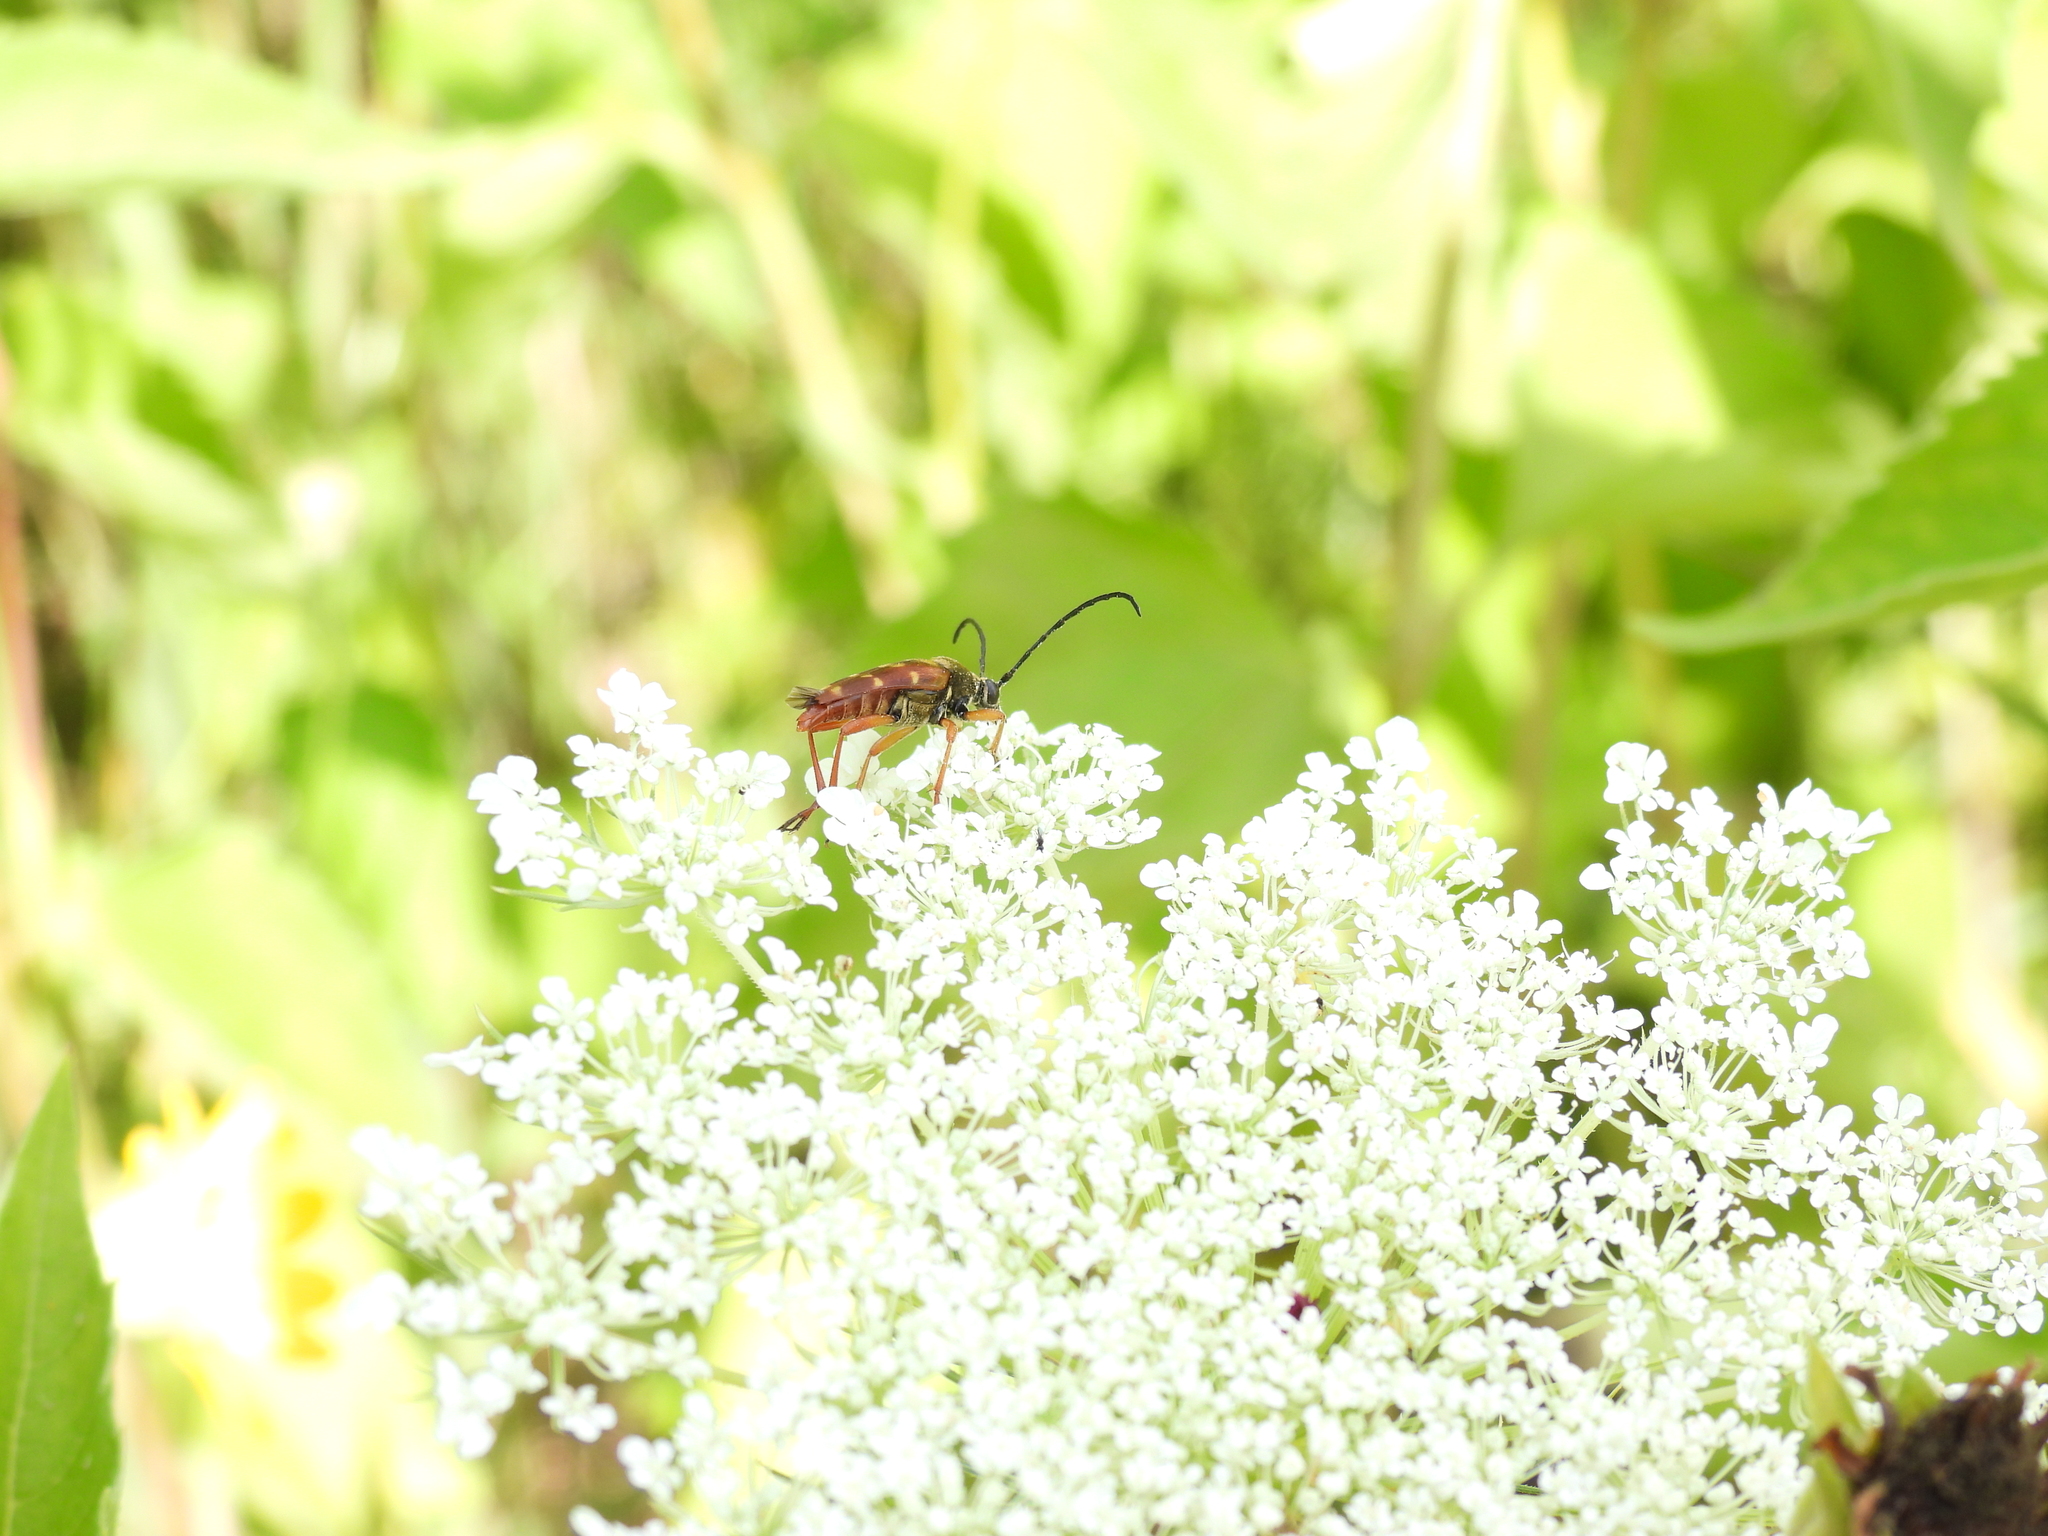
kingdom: Animalia
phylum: Arthropoda
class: Insecta
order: Coleoptera
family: Cerambycidae
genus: Typocerus
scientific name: Typocerus velutinus
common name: Banded longhorn beetle
